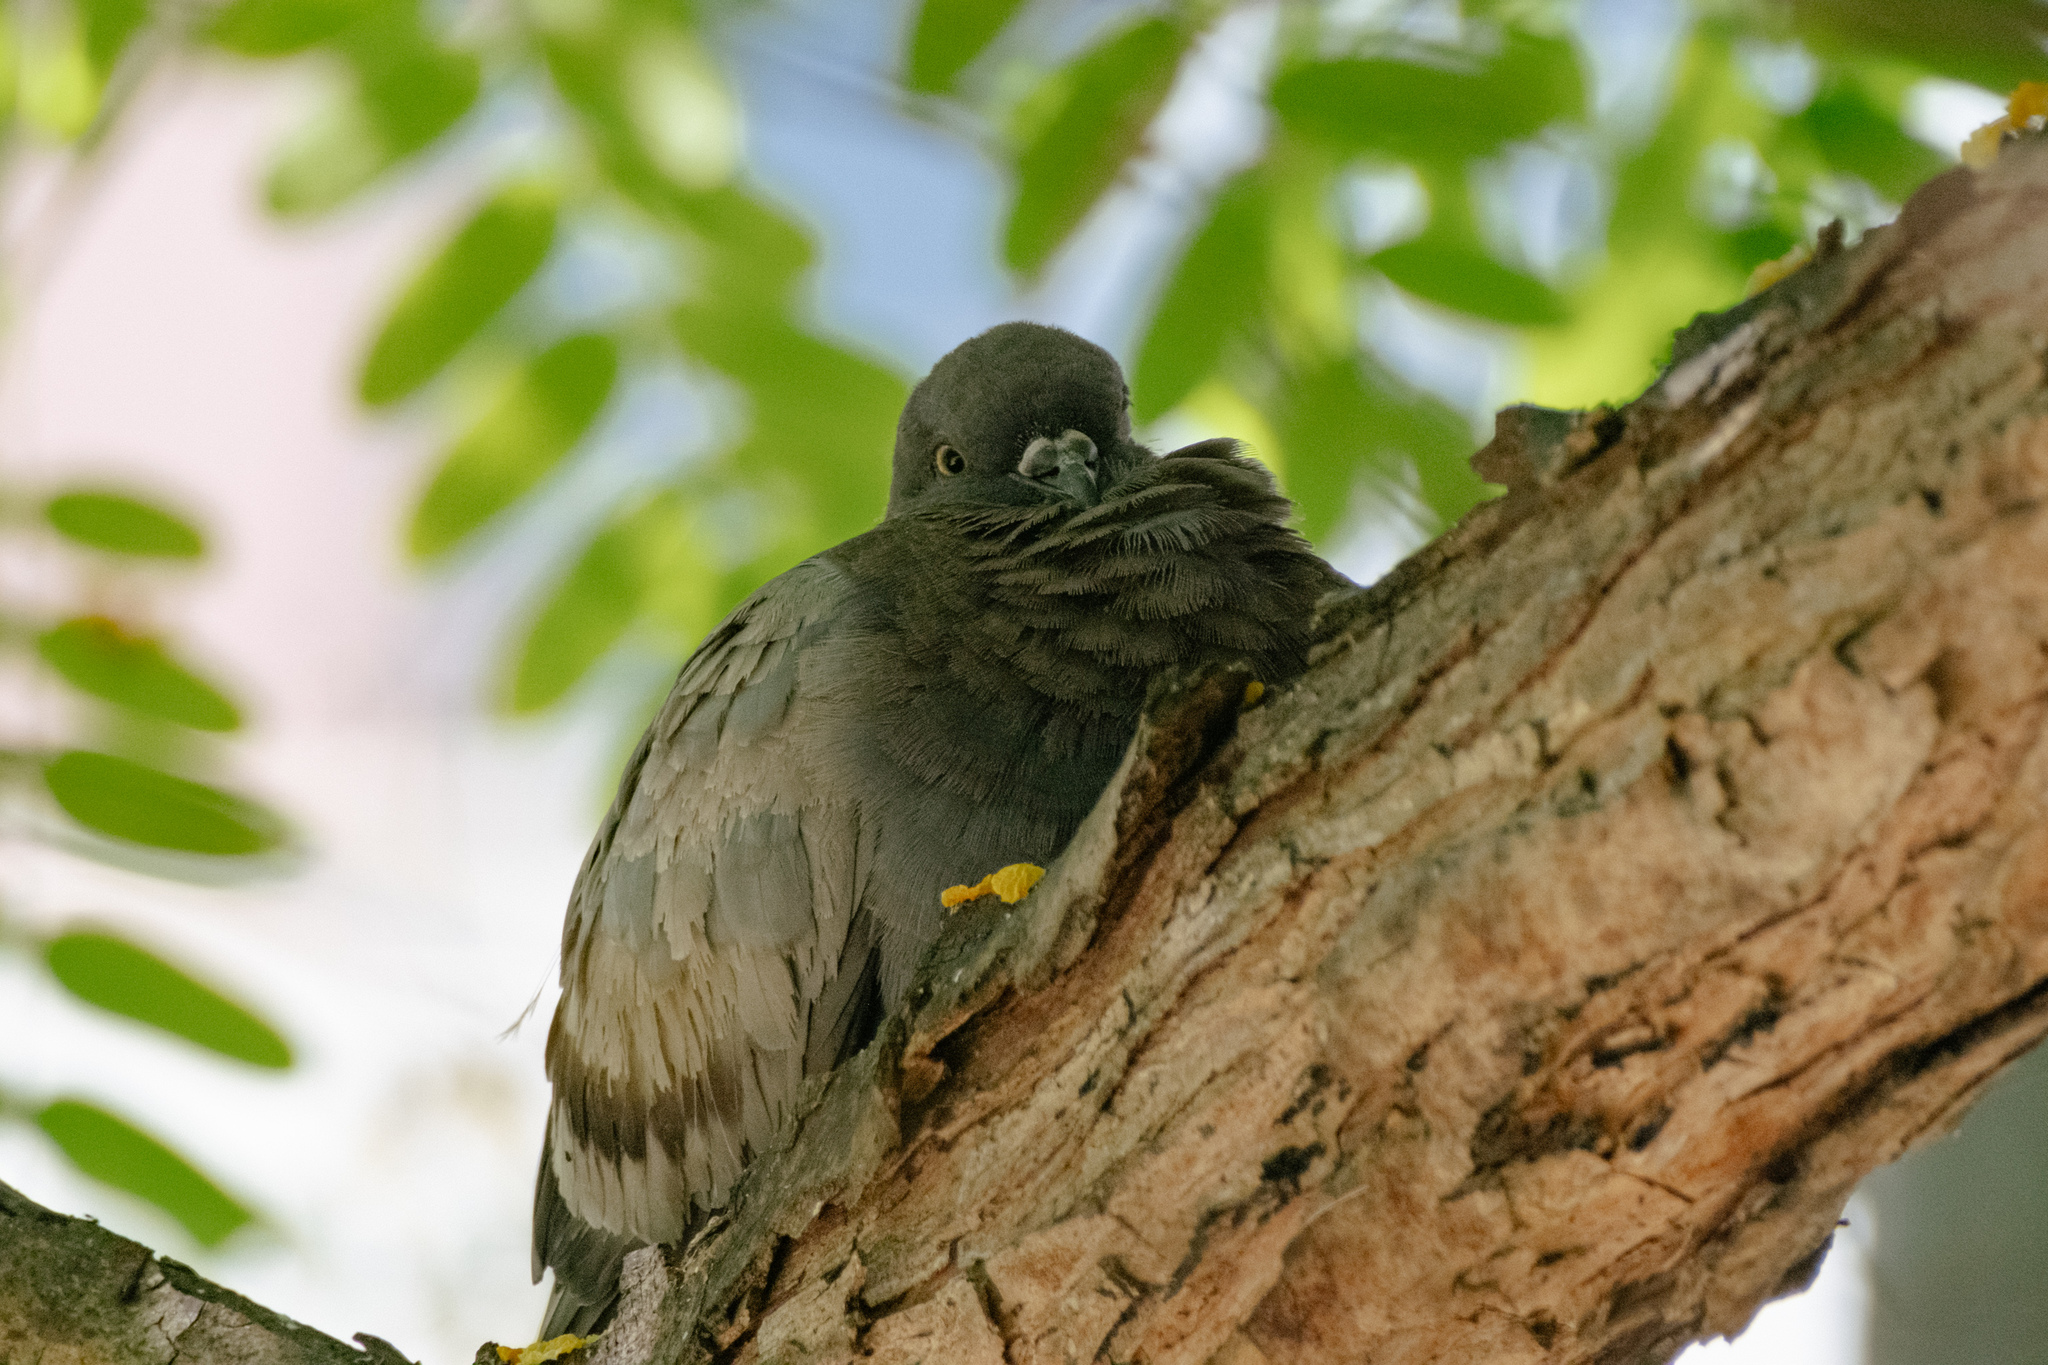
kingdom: Animalia
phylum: Chordata
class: Aves
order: Columbiformes
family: Columbidae
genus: Columba
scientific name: Columba livia
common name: Rock pigeon
